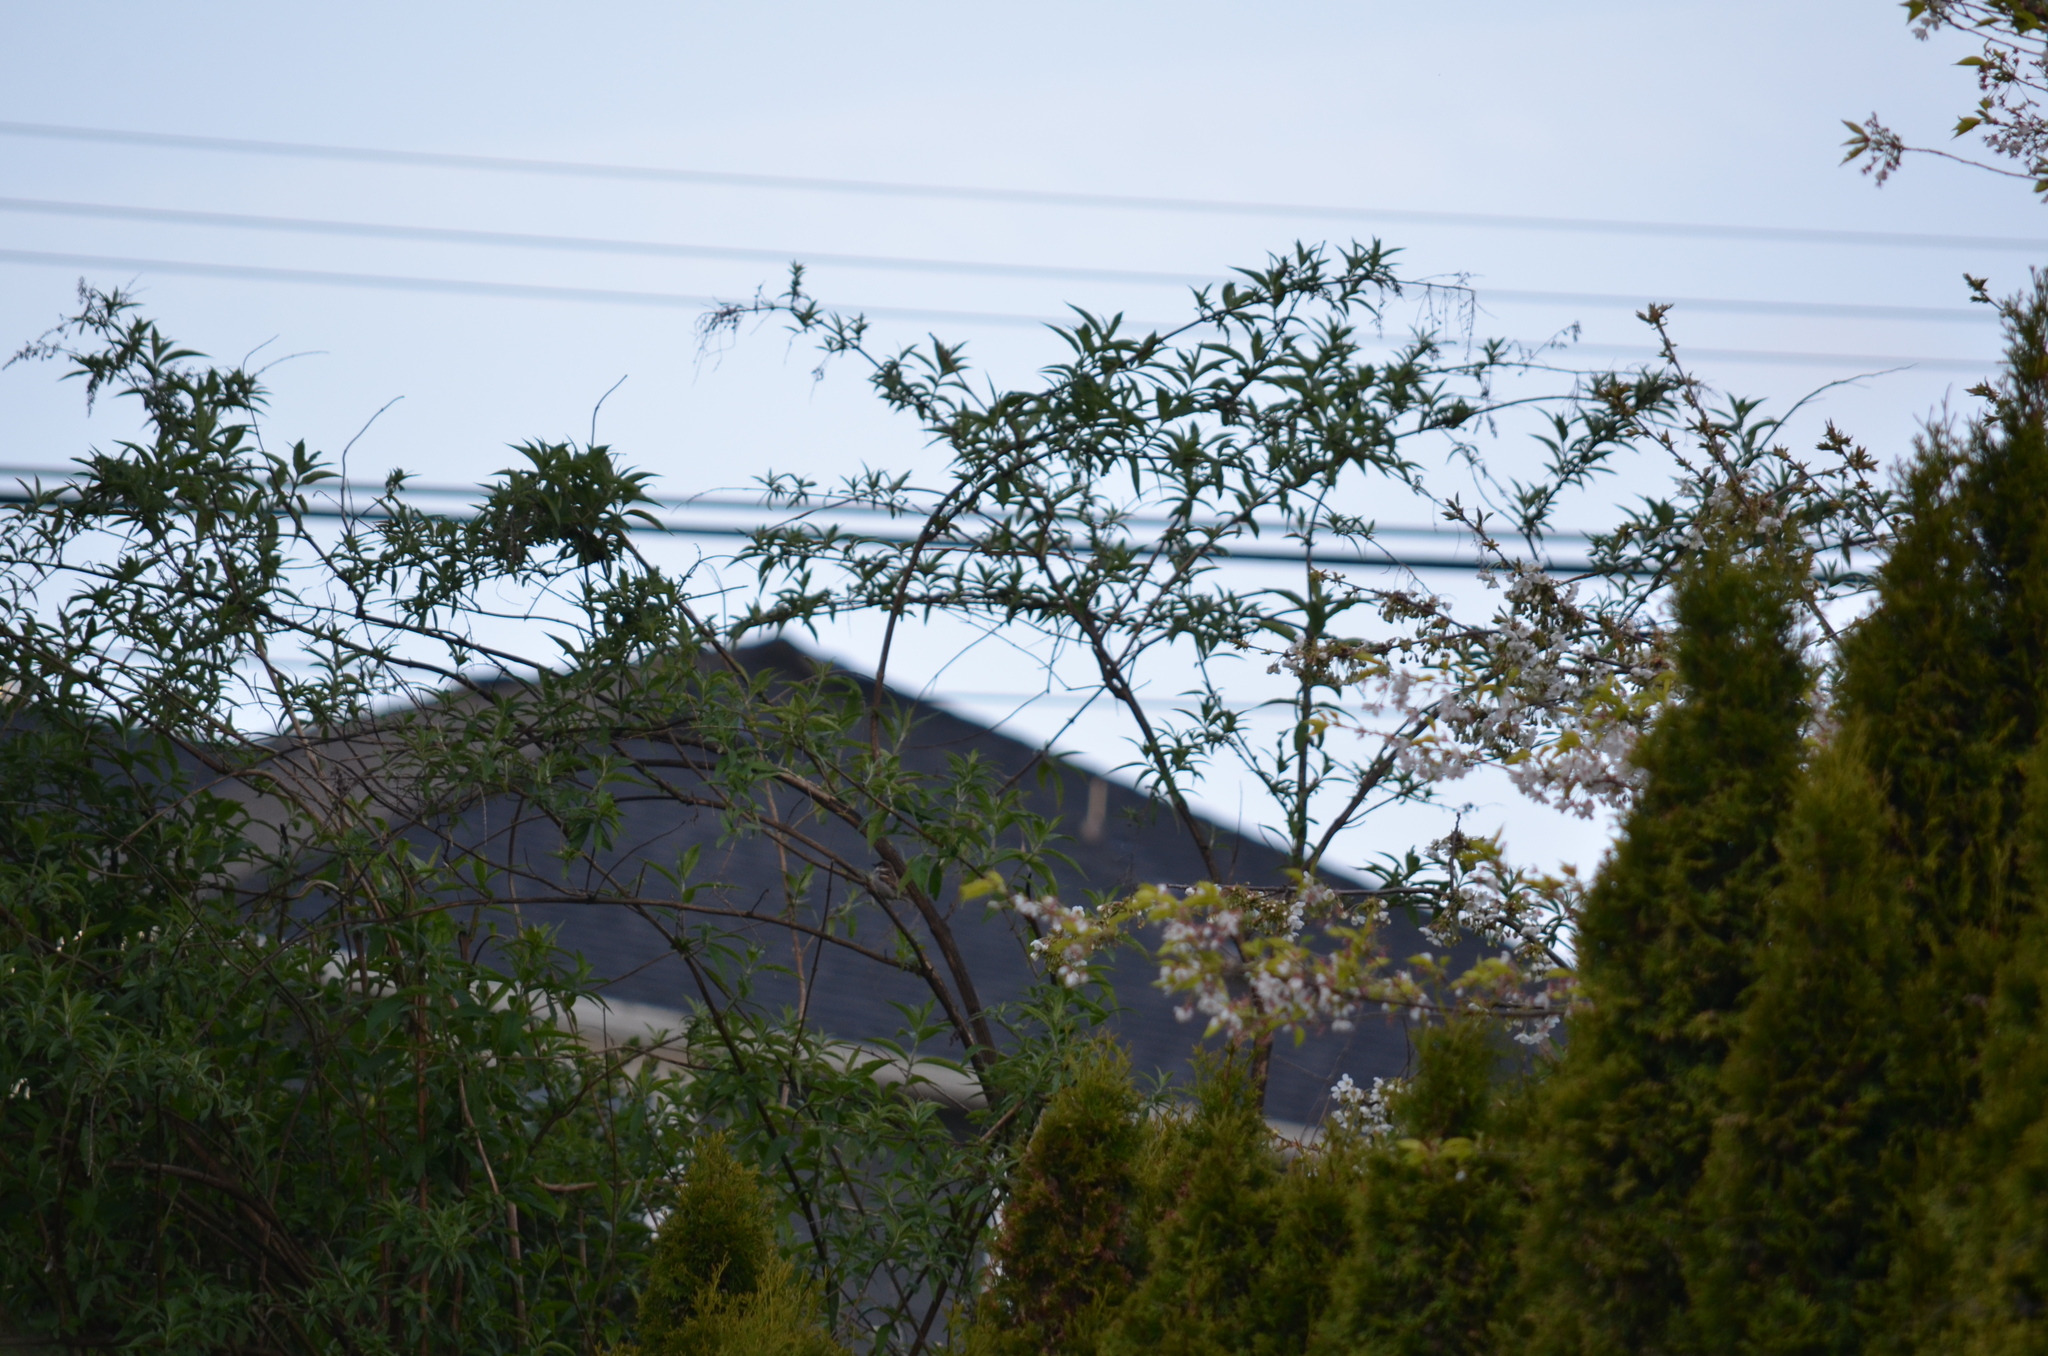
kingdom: Animalia
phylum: Chordata
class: Aves
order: Passeriformes
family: Passeridae
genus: Passer
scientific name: Passer domesticus
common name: House sparrow
